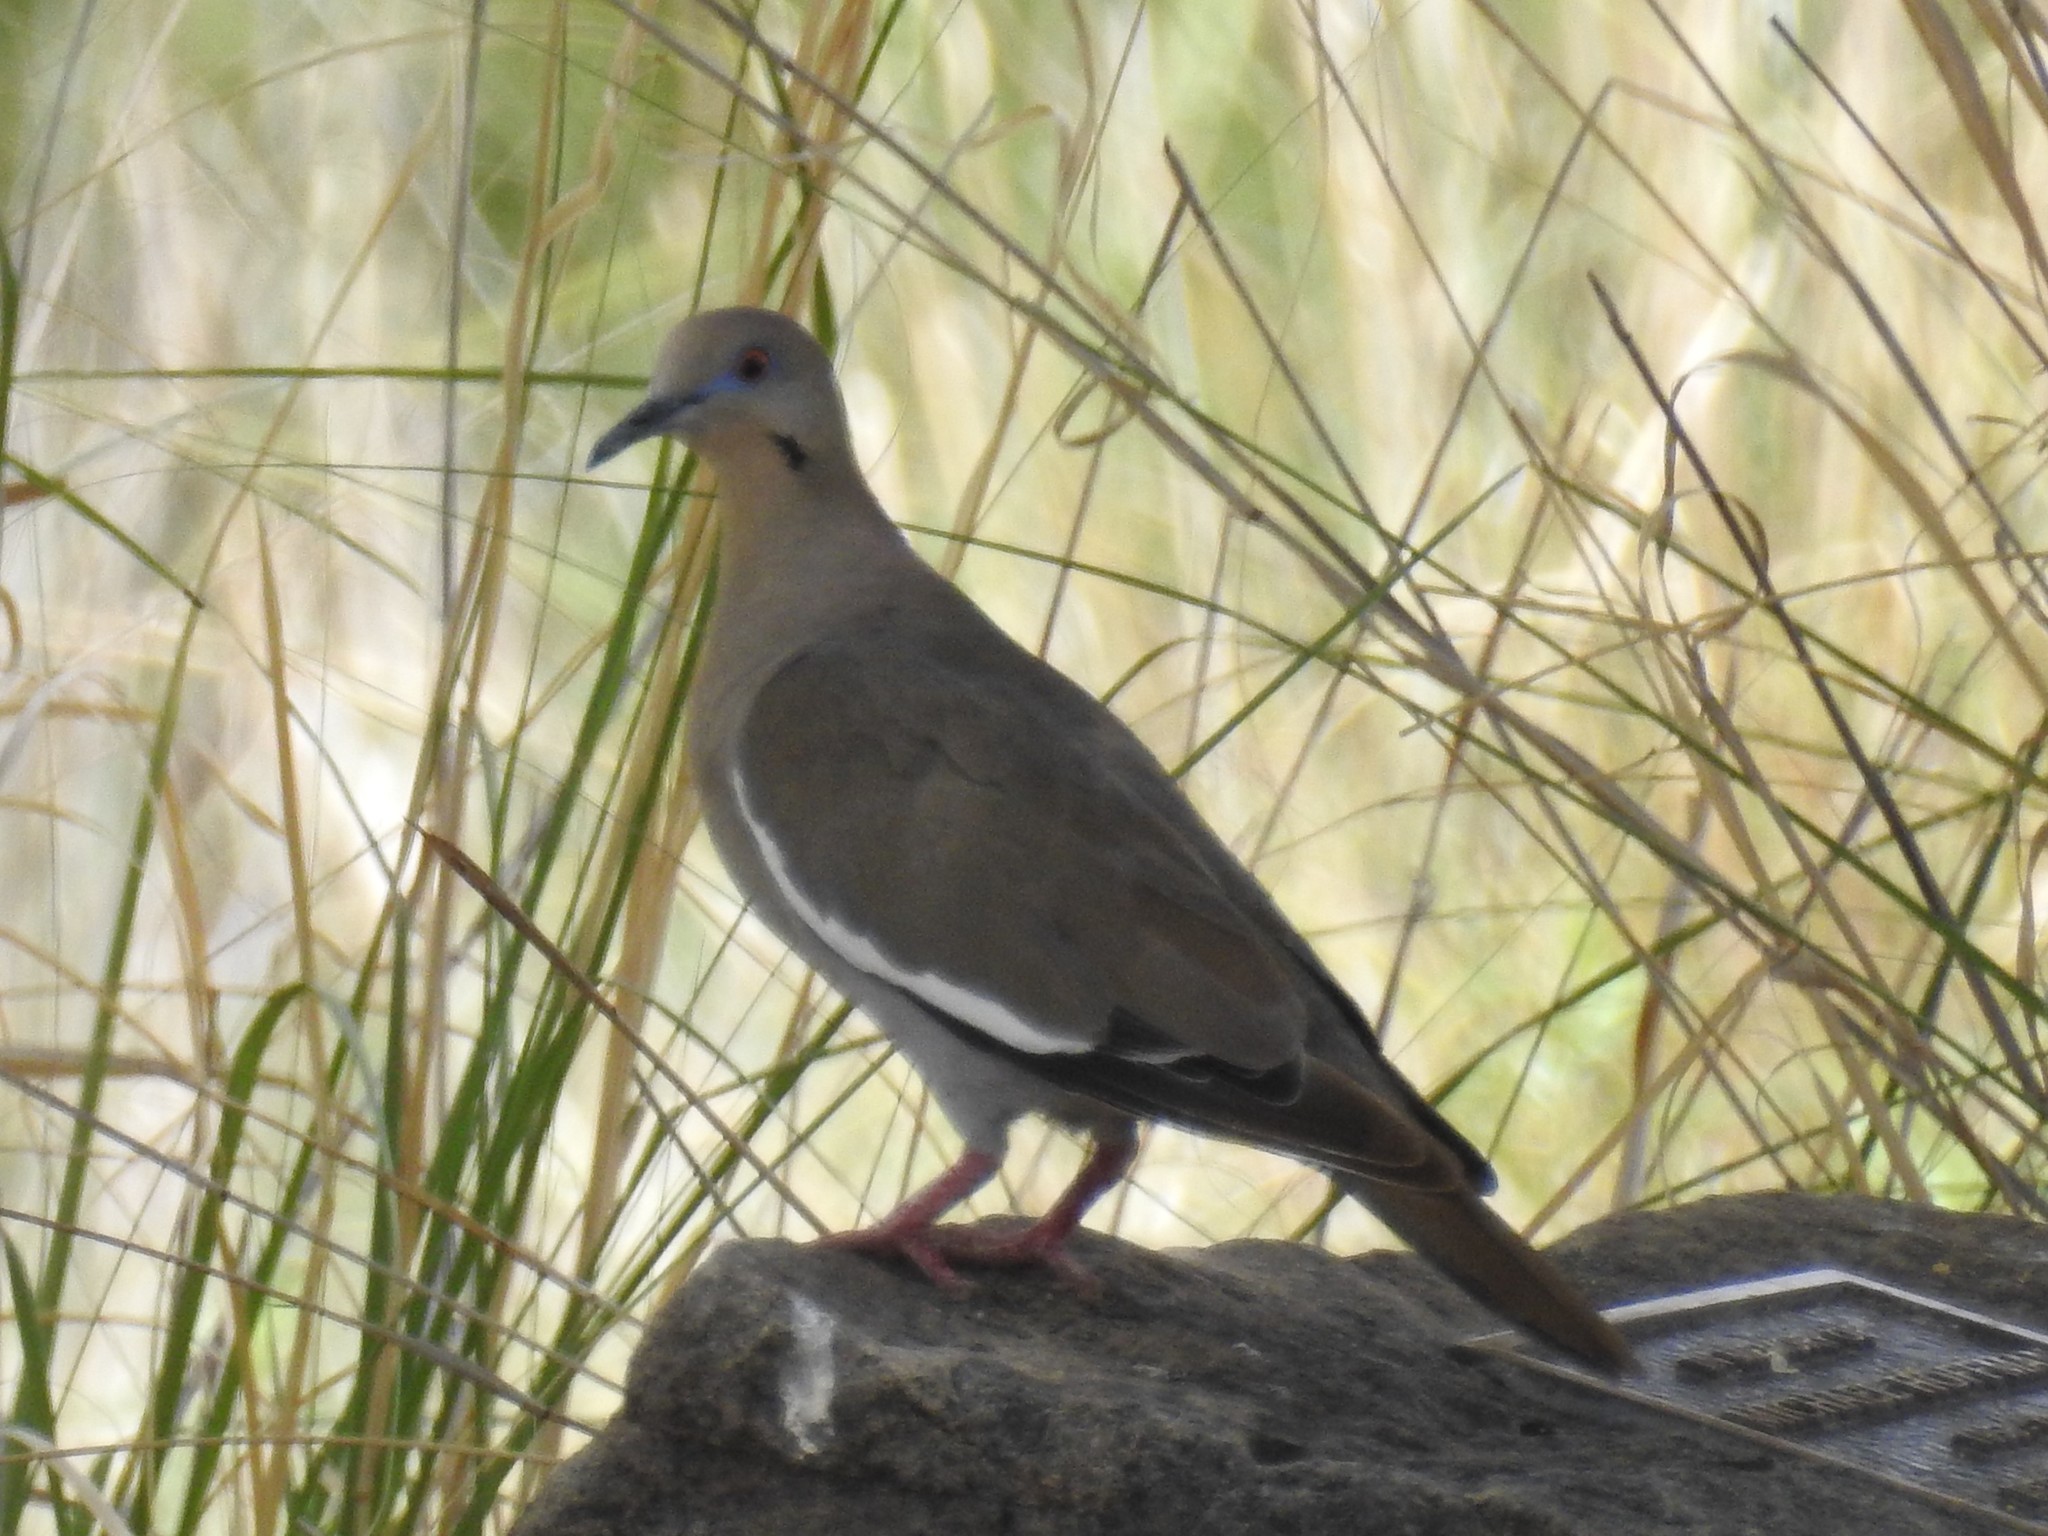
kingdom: Animalia
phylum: Chordata
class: Aves
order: Columbiformes
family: Columbidae
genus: Zenaida
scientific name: Zenaida asiatica
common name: White-winged dove
